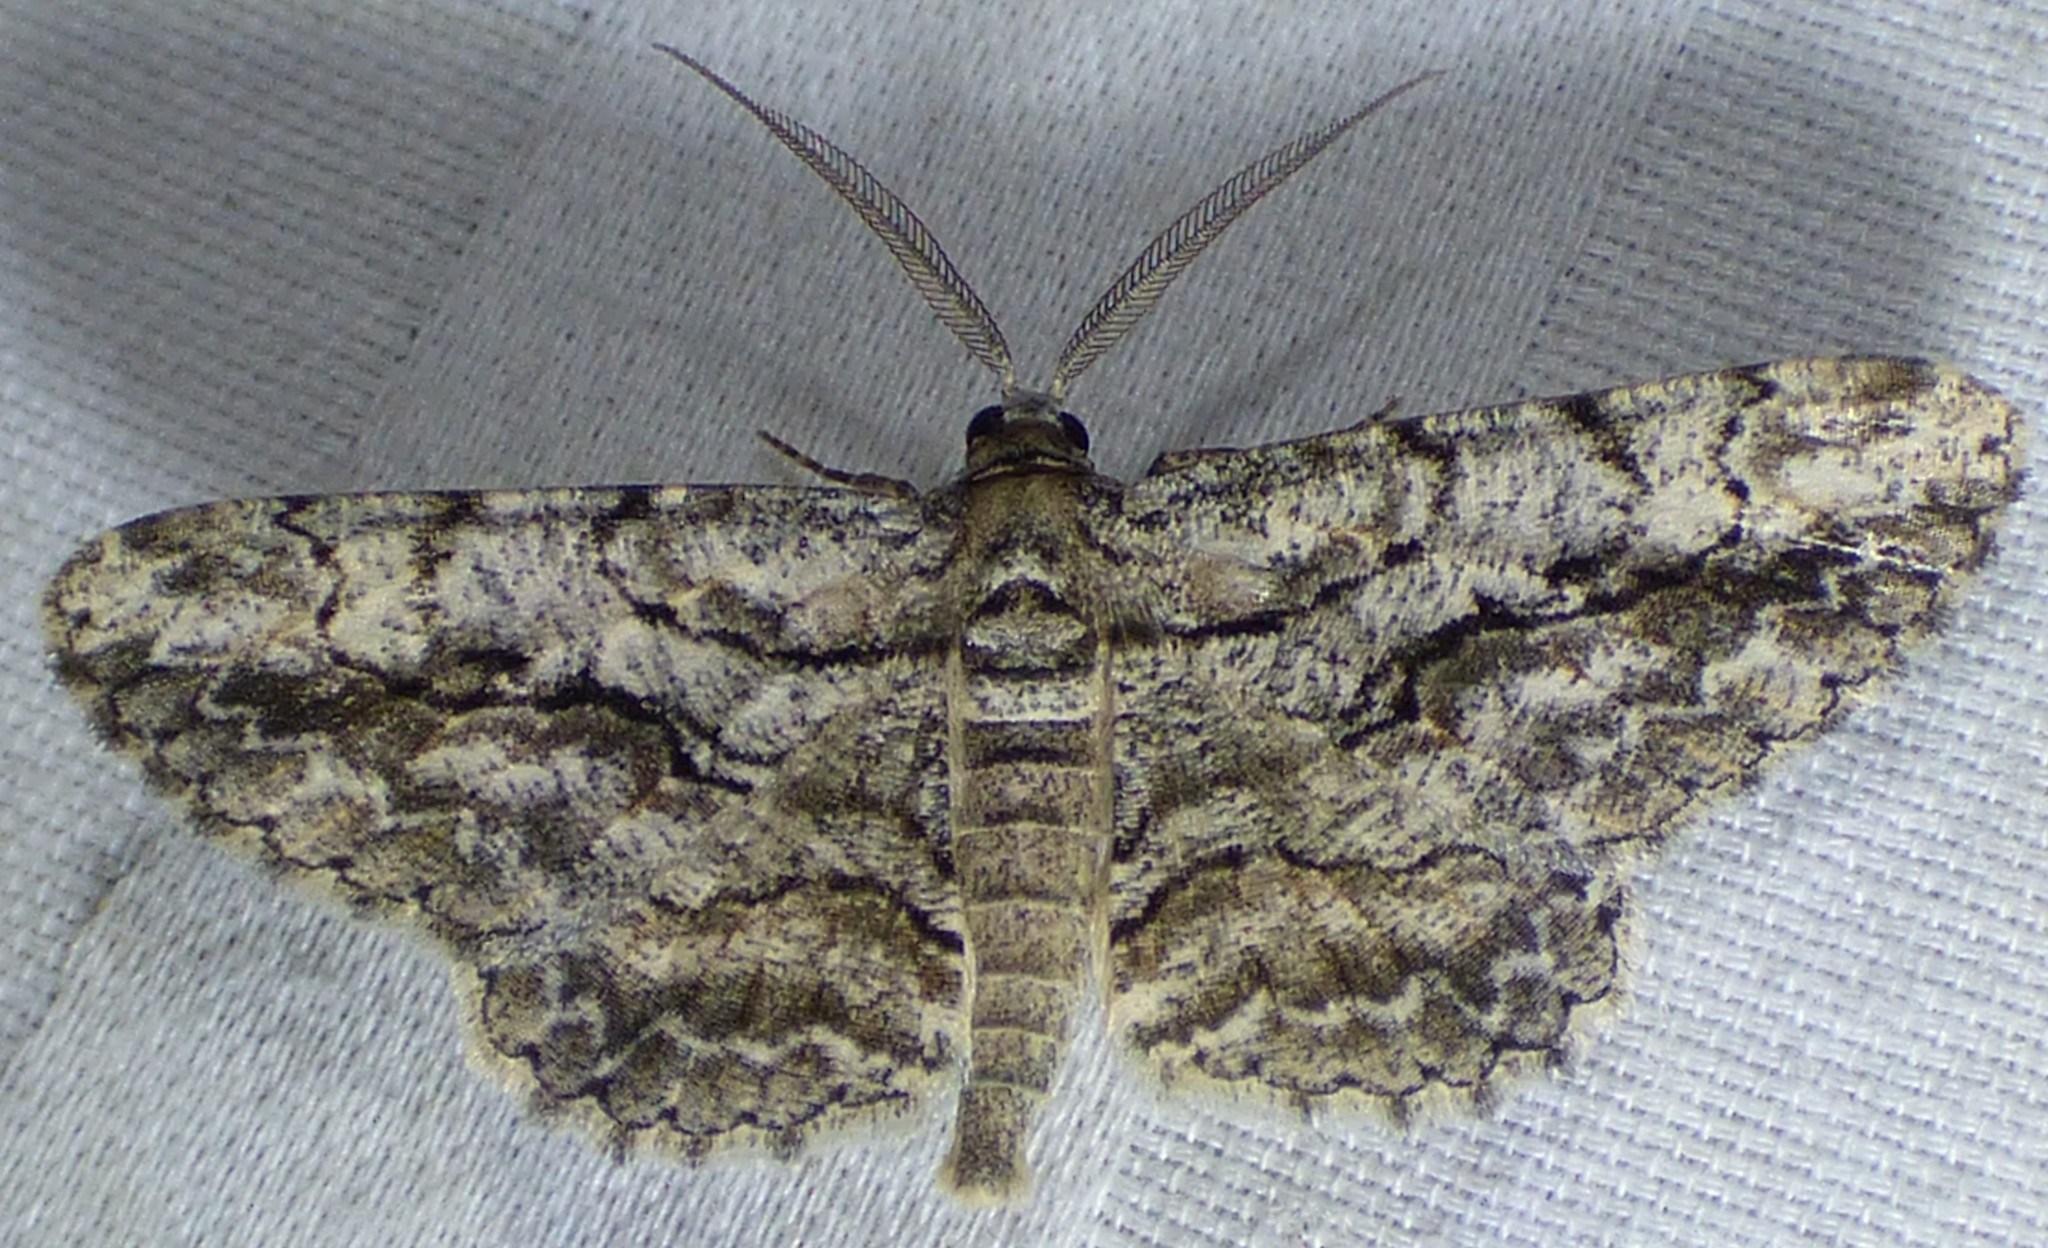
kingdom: Animalia
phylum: Arthropoda
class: Insecta
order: Lepidoptera
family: Geometridae
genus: Anavitrinella
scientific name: Anavitrinella pampinaria
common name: Common gray
